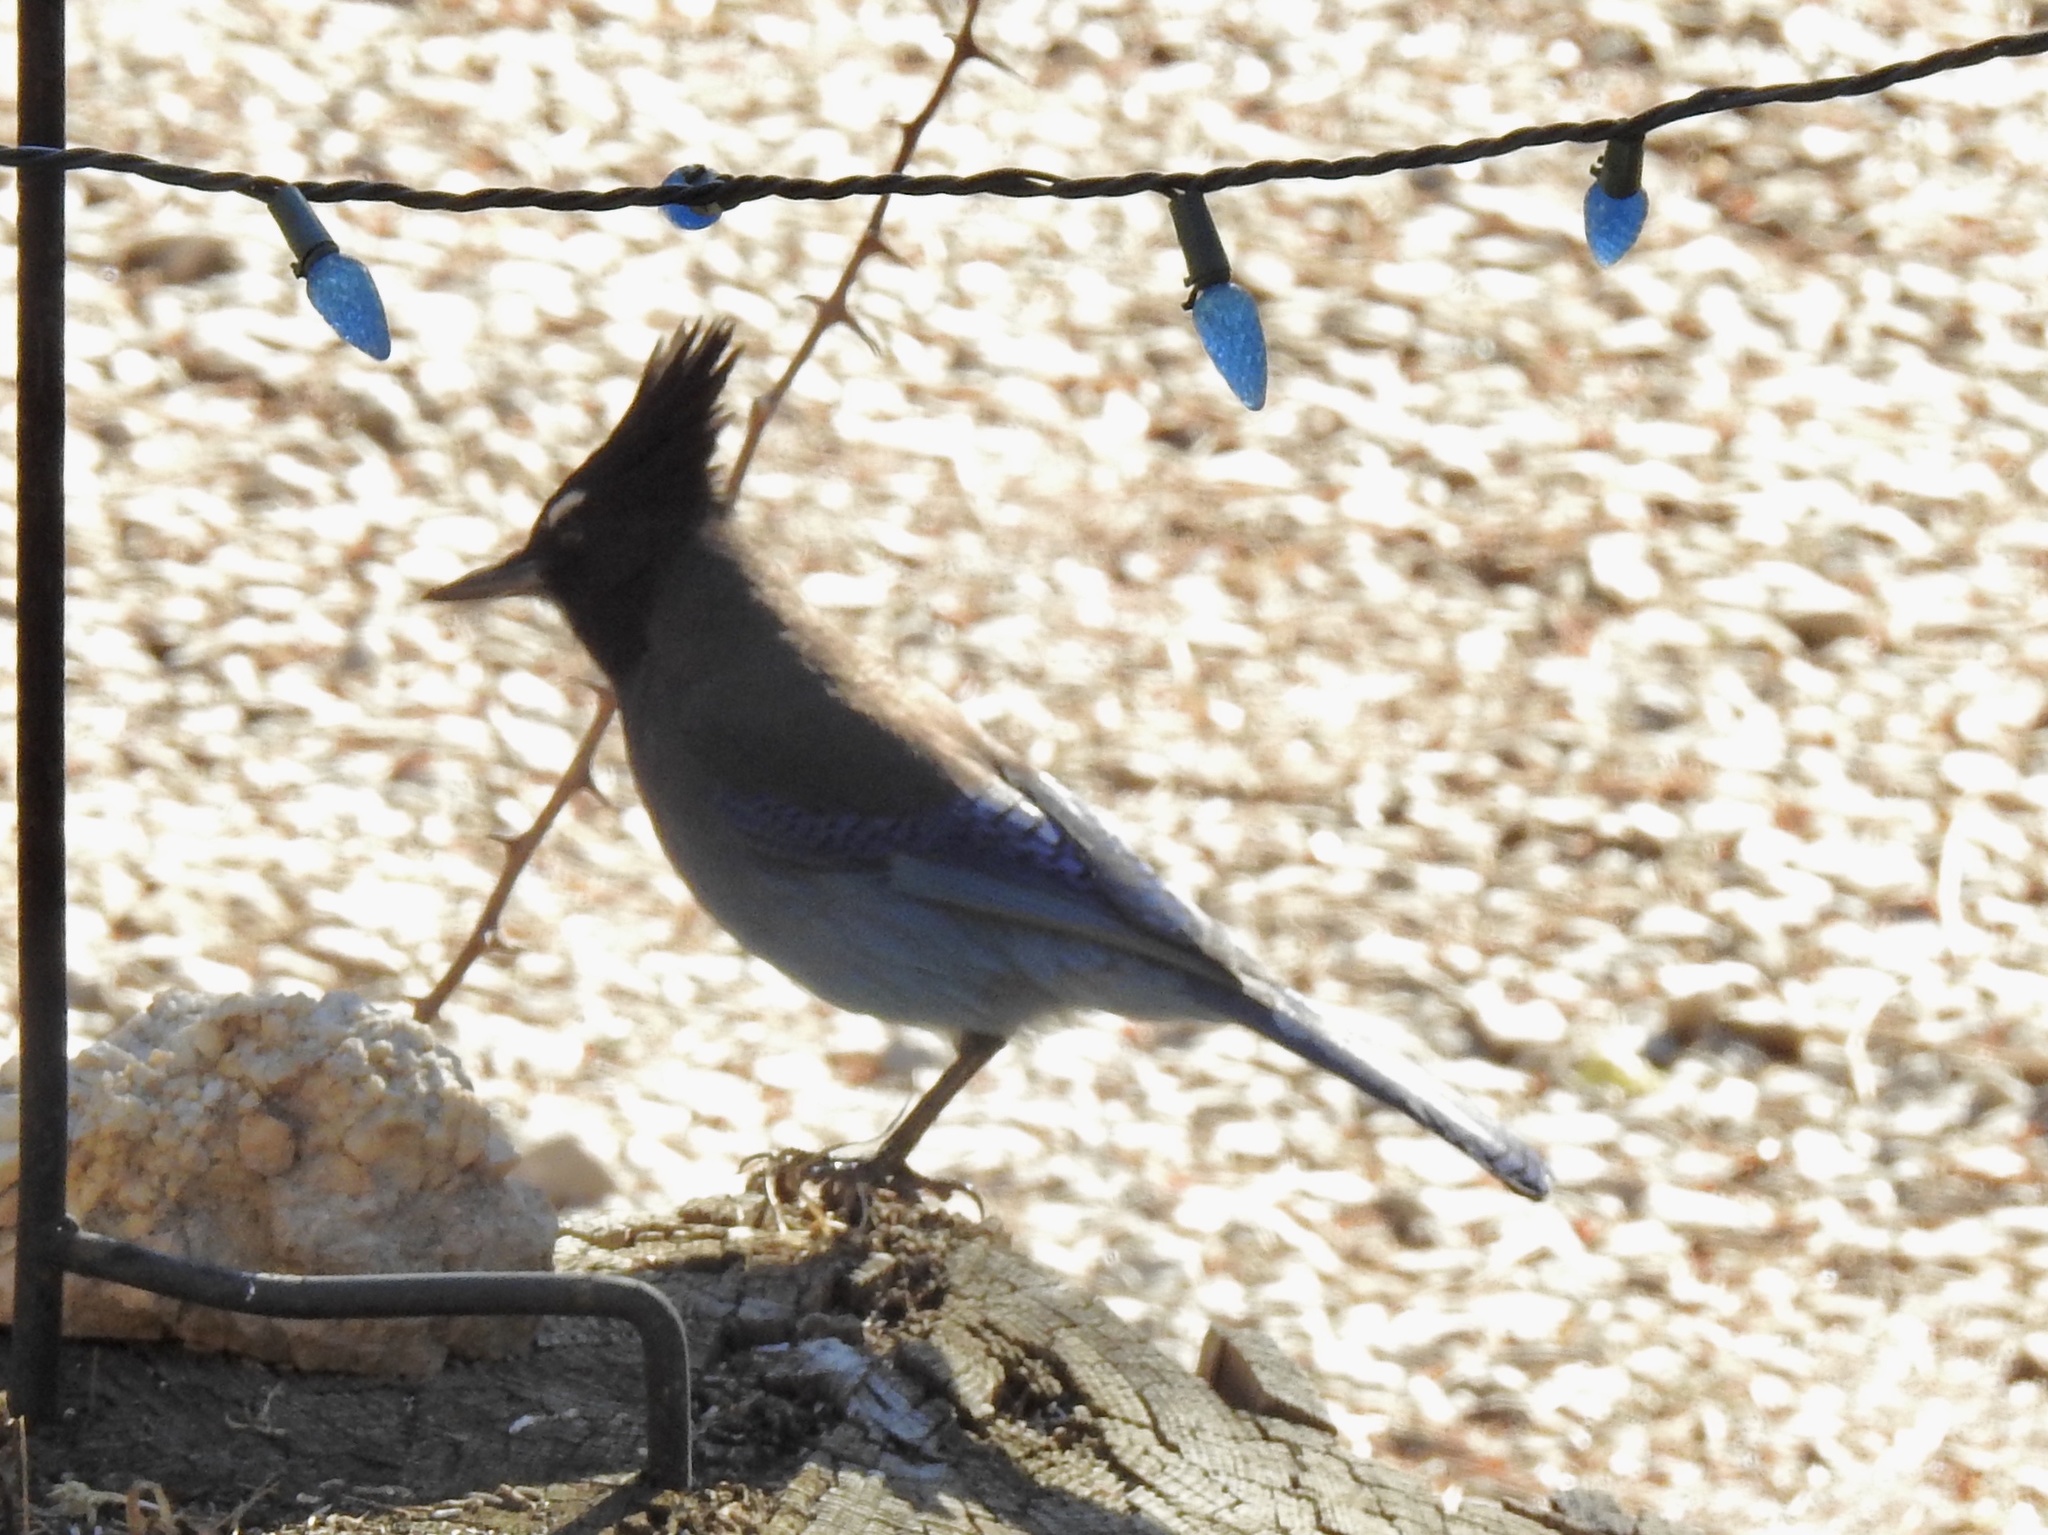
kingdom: Animalia
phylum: Chordata
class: Aves
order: Passeriformes
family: Corvidae
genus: Cyanocitta
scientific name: Cyanocitta stelleri
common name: Steller's jay
